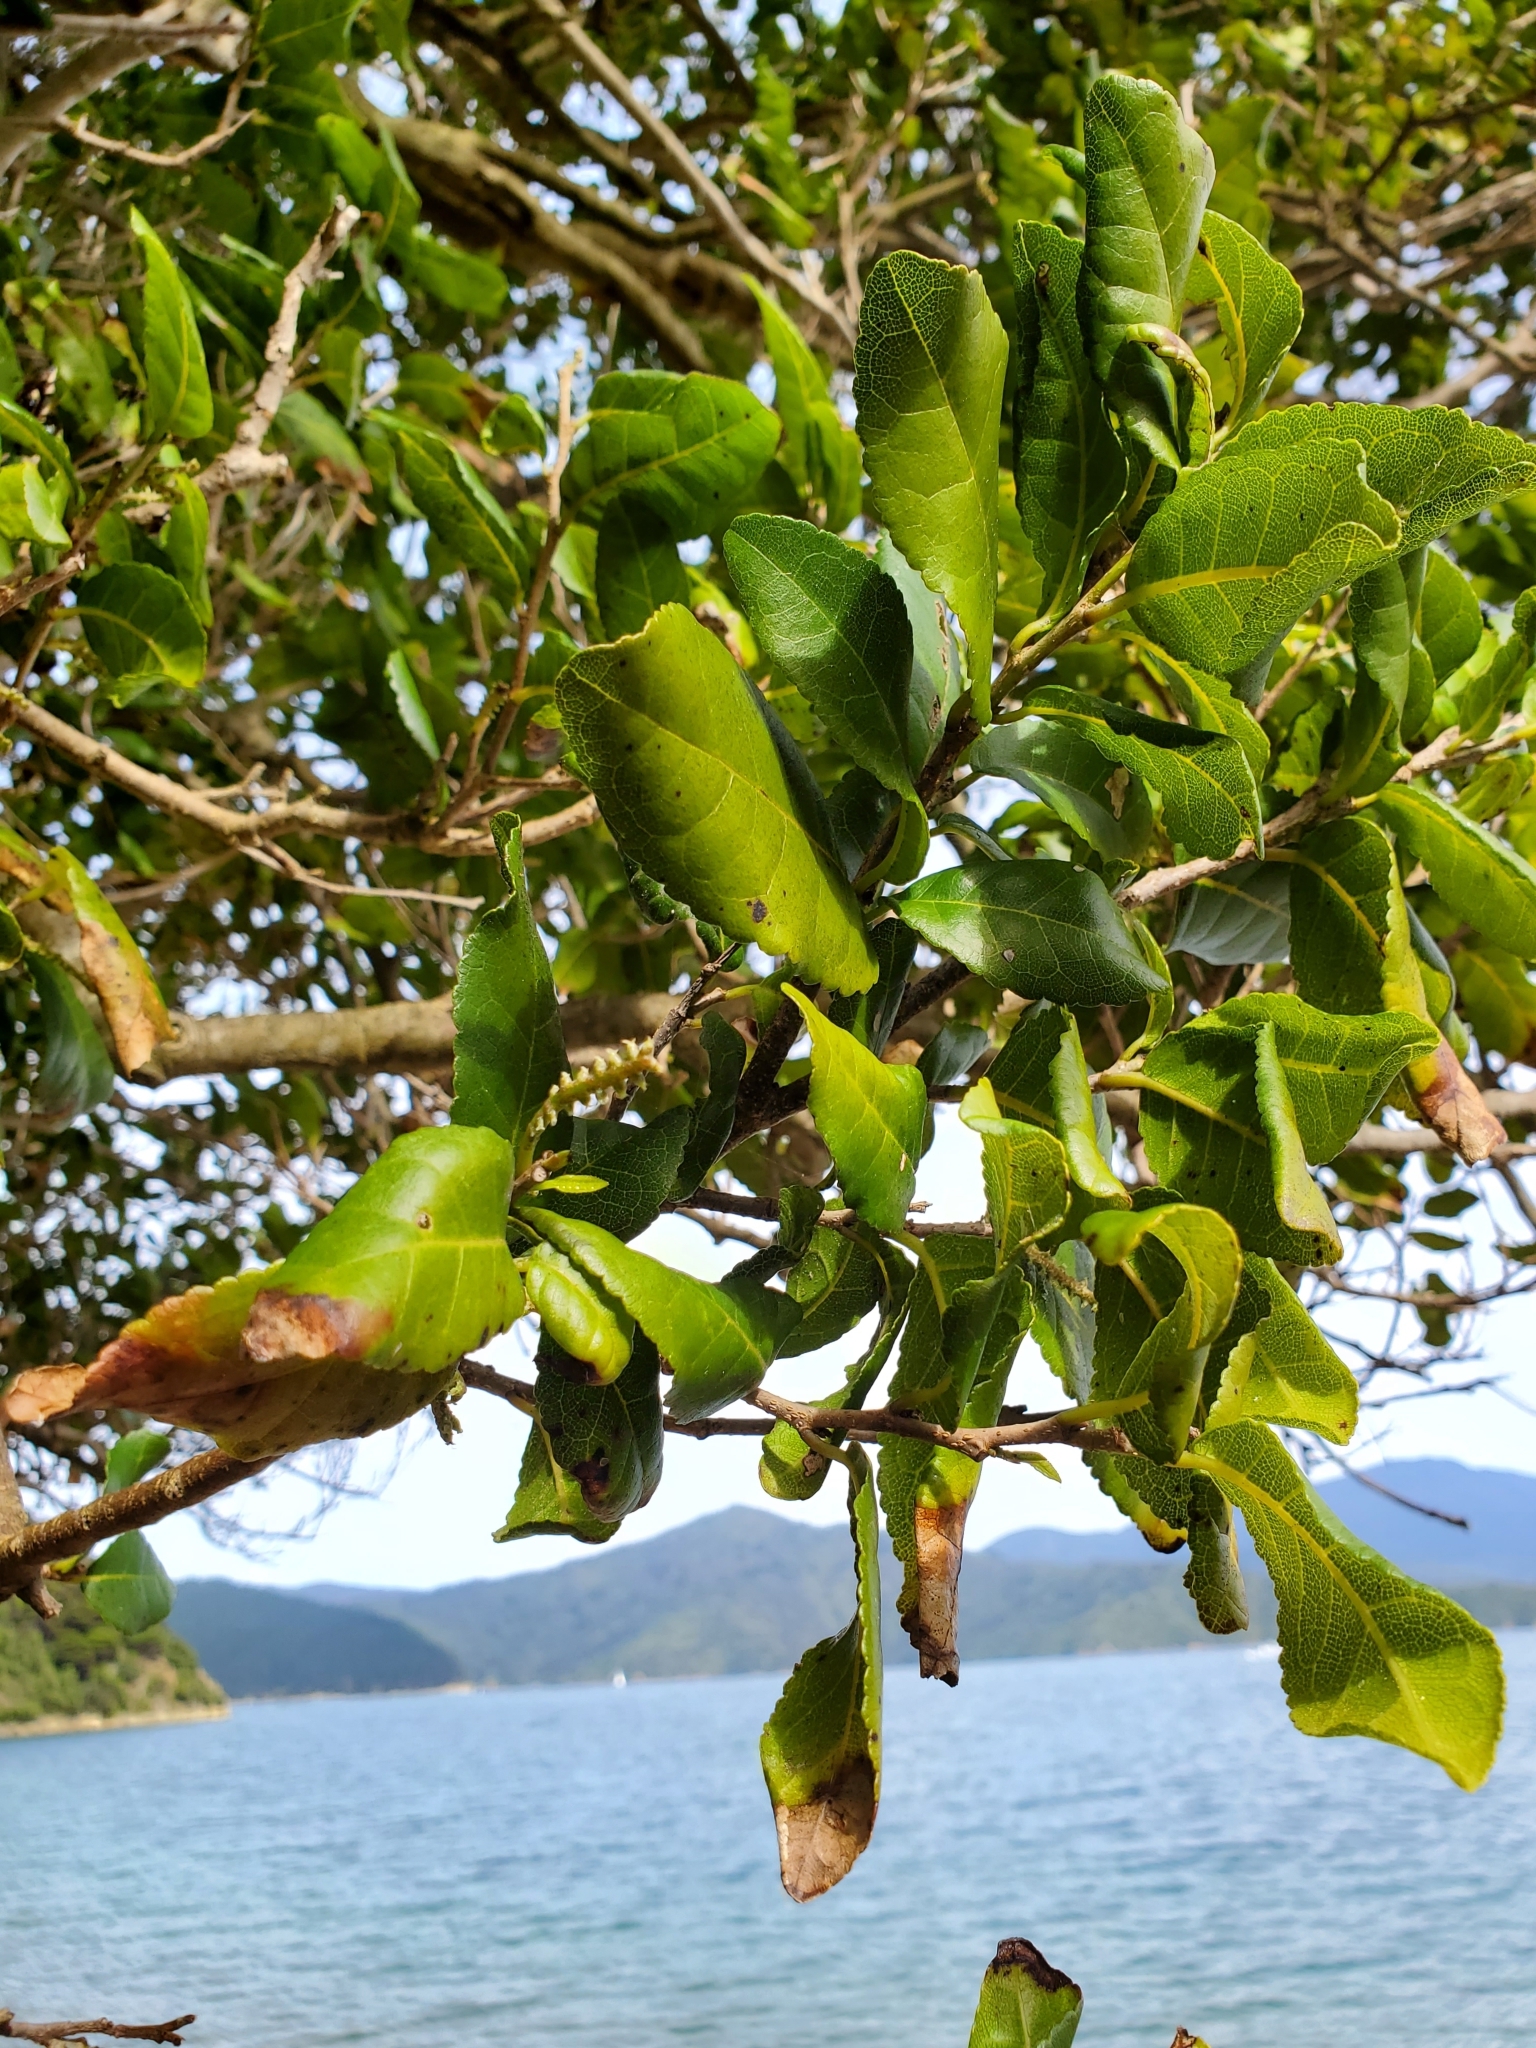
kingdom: Plantae
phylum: Tracheophyta
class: Magnoliopsida
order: Rosales
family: Moraceae
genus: Paratrophis
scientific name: Paratrophis banksii
